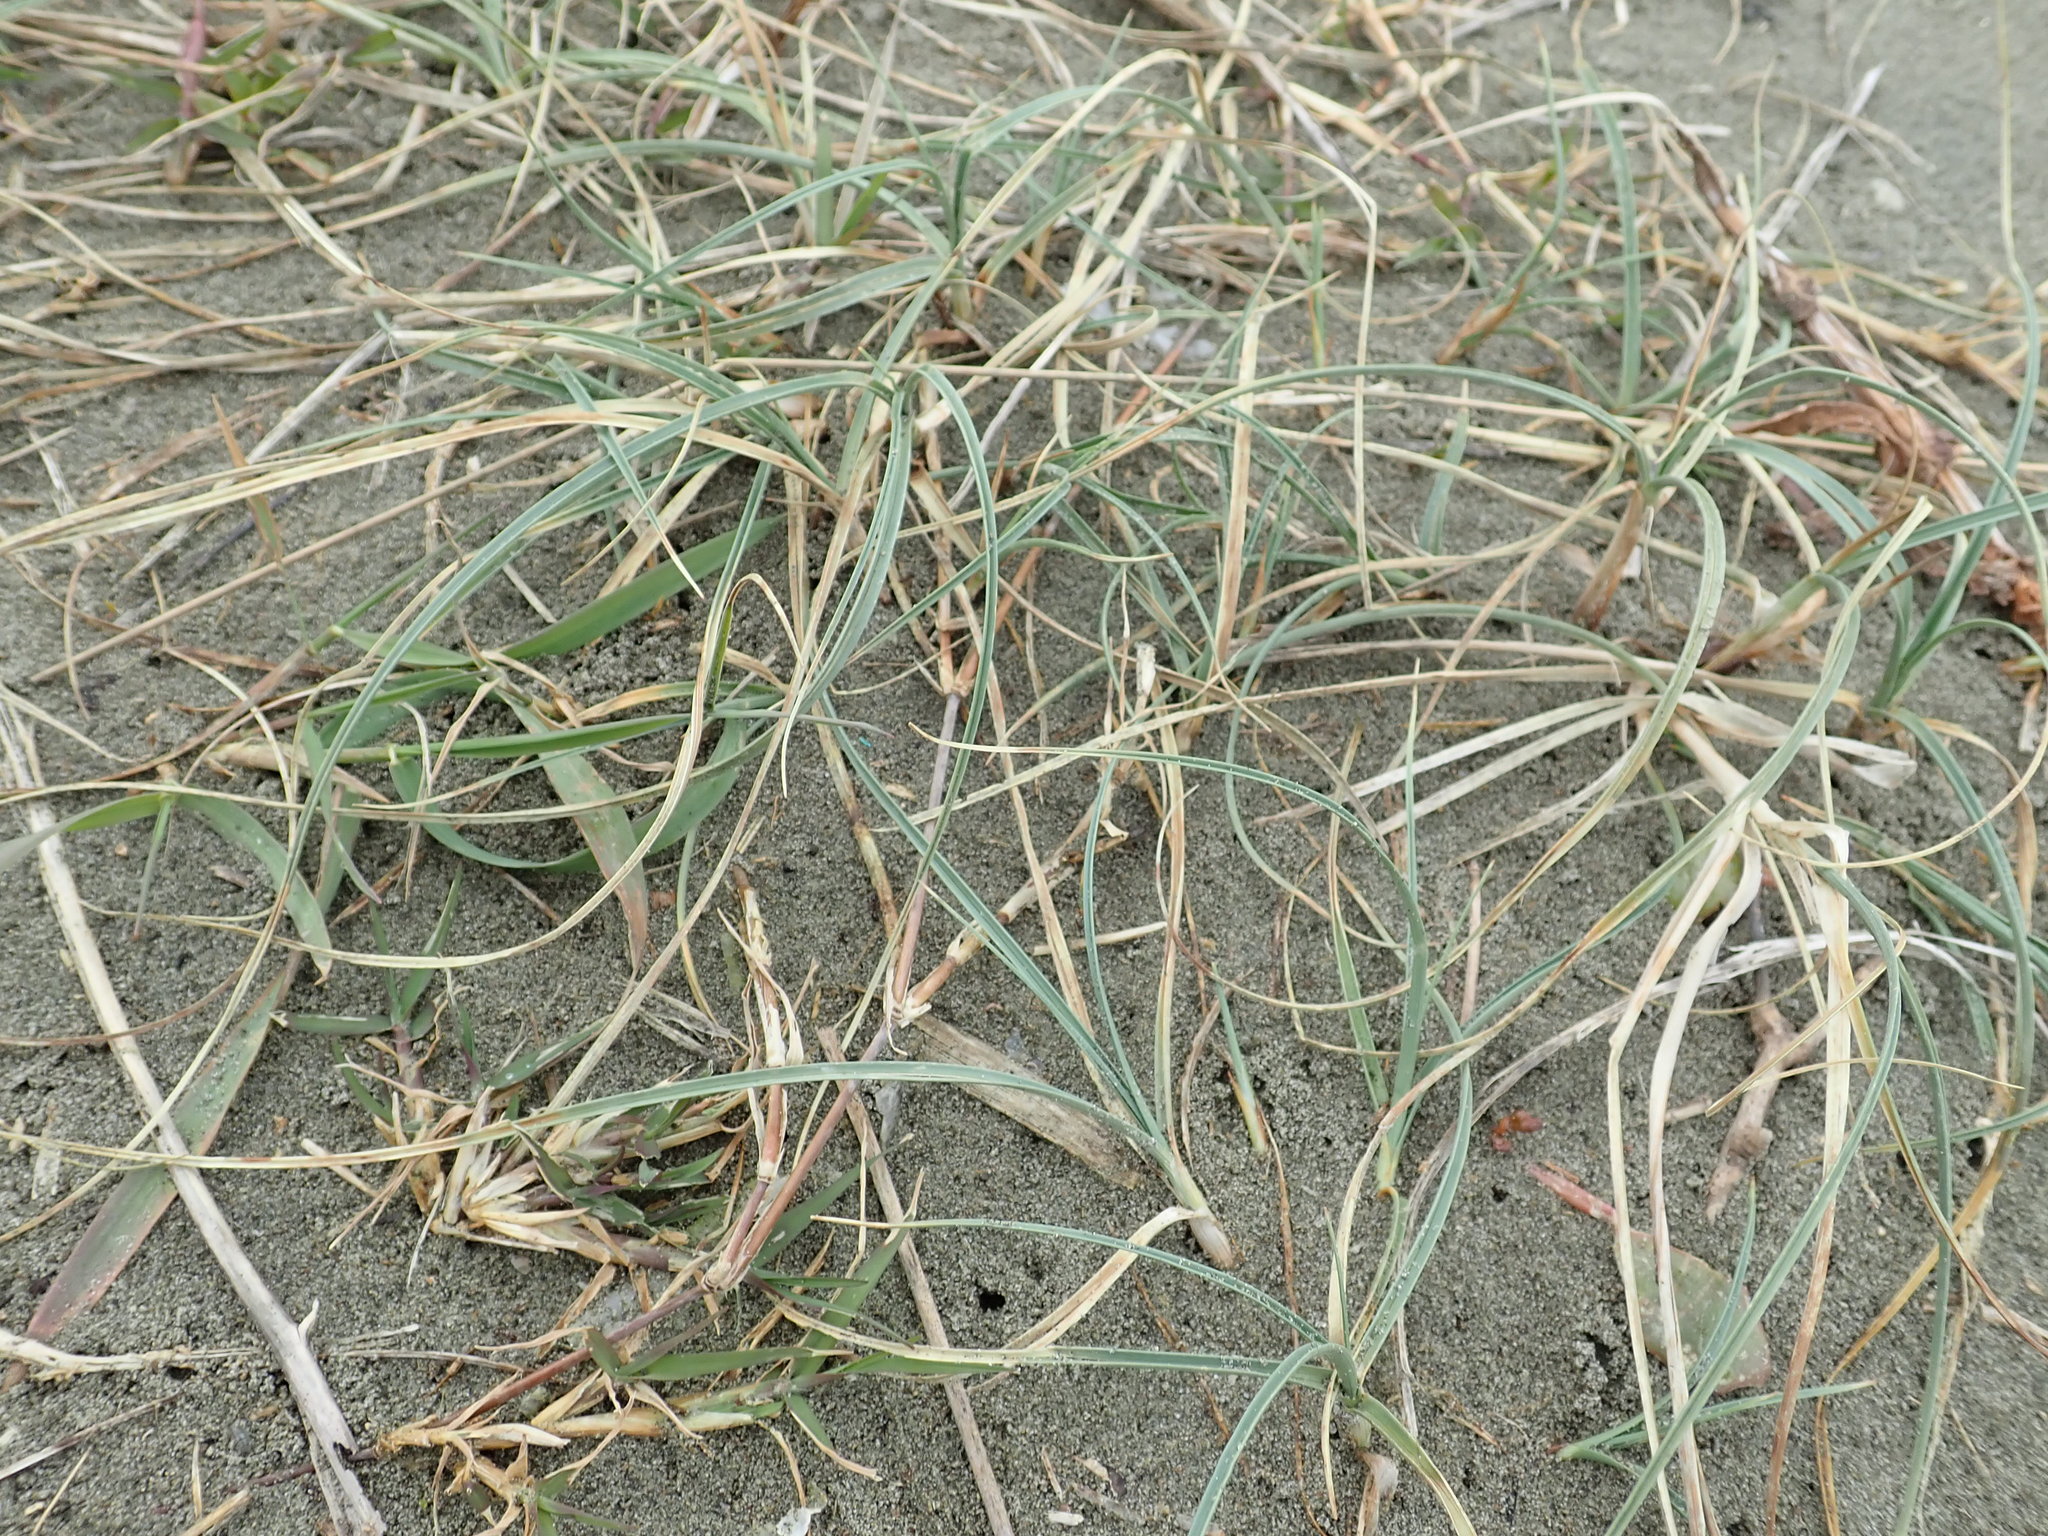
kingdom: Plantae
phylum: Tracheophyta
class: Liliopsida
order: Poales
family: Cyperaceae
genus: Carex
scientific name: Carex pumila
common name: Dwarf sedge
